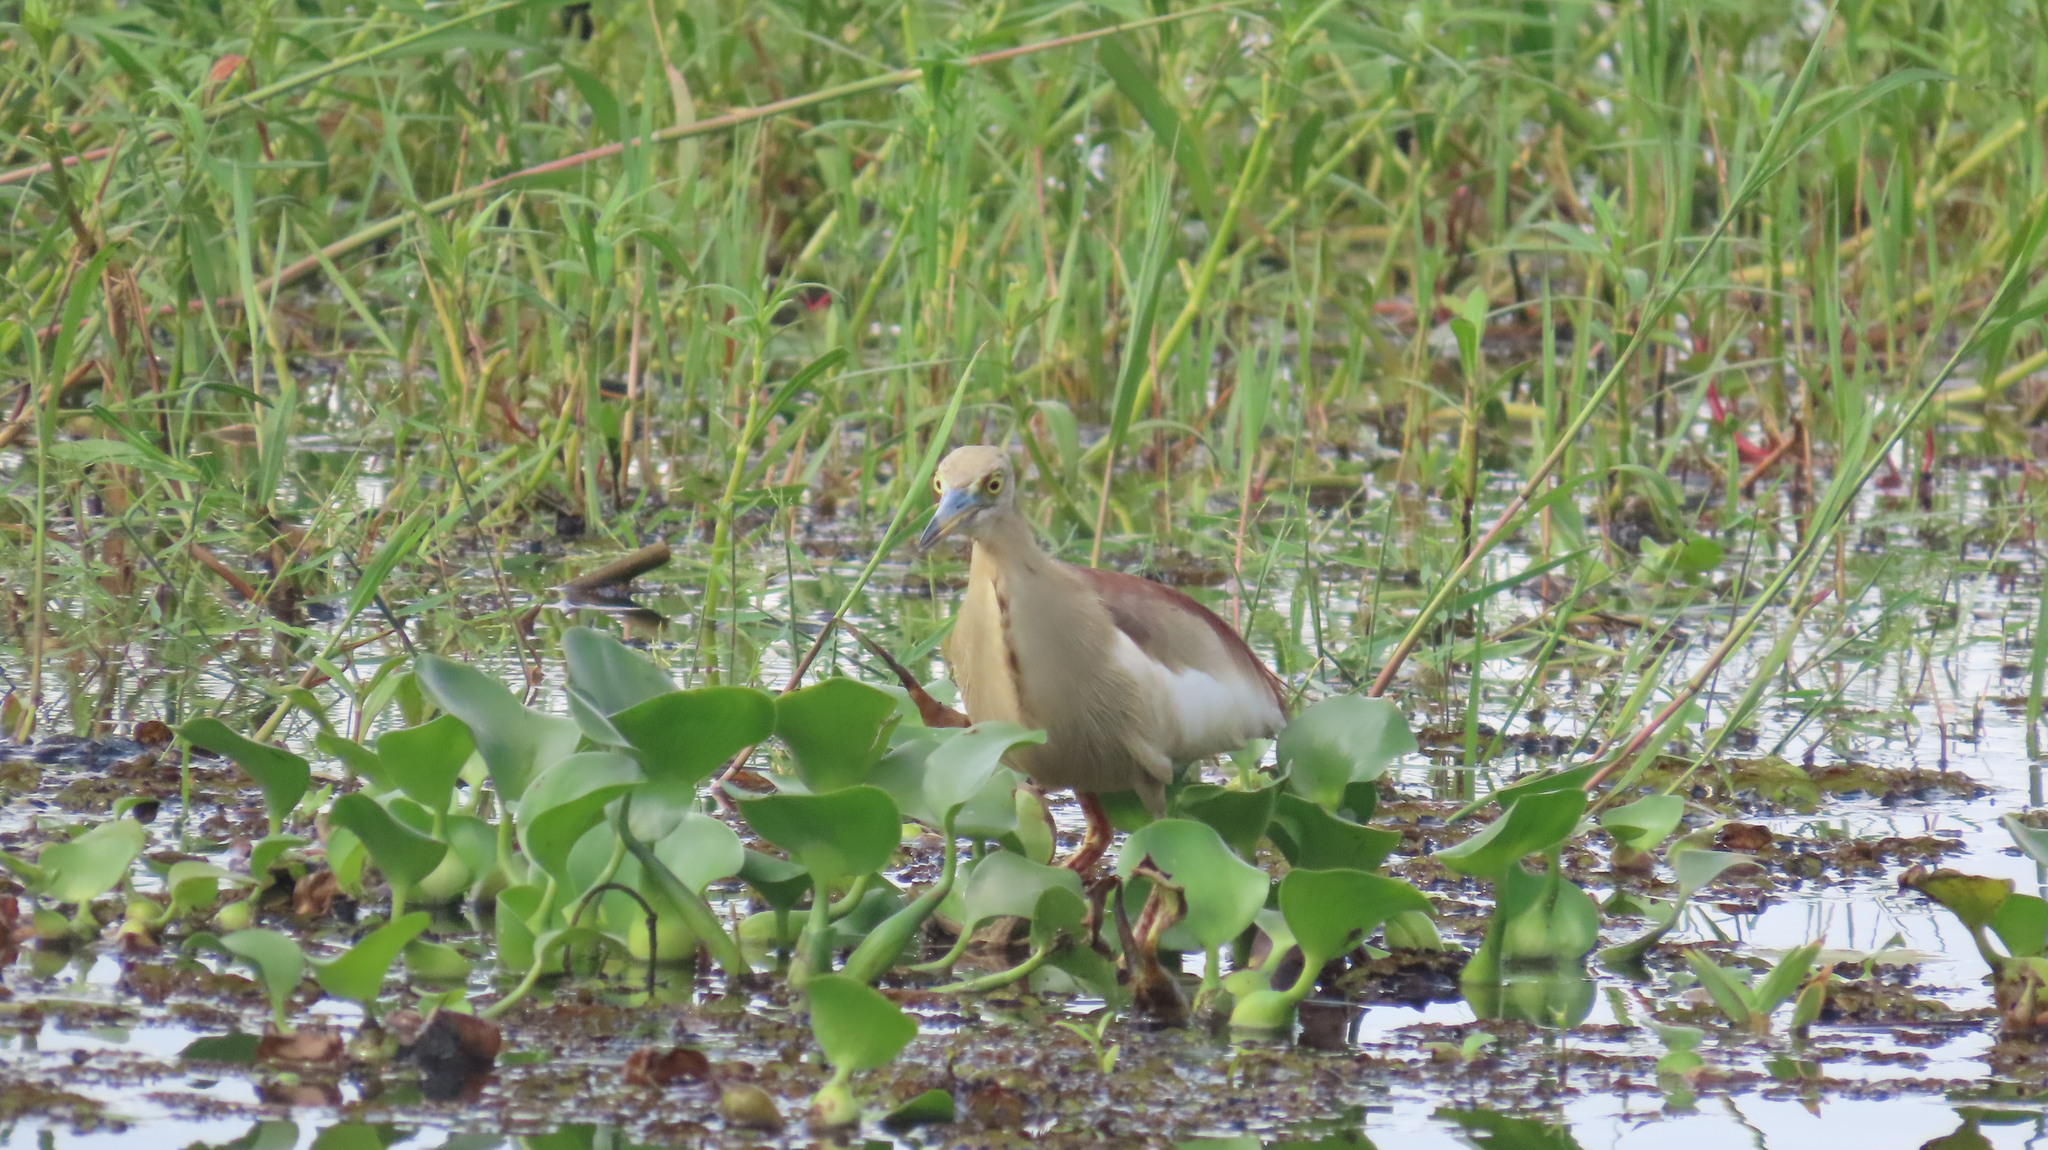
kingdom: Animalia
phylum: Chordata
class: Aves
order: Pelecaniformes
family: Ardeidae
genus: Ardeola
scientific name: Ardeola grayii
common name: Indian pond heron
